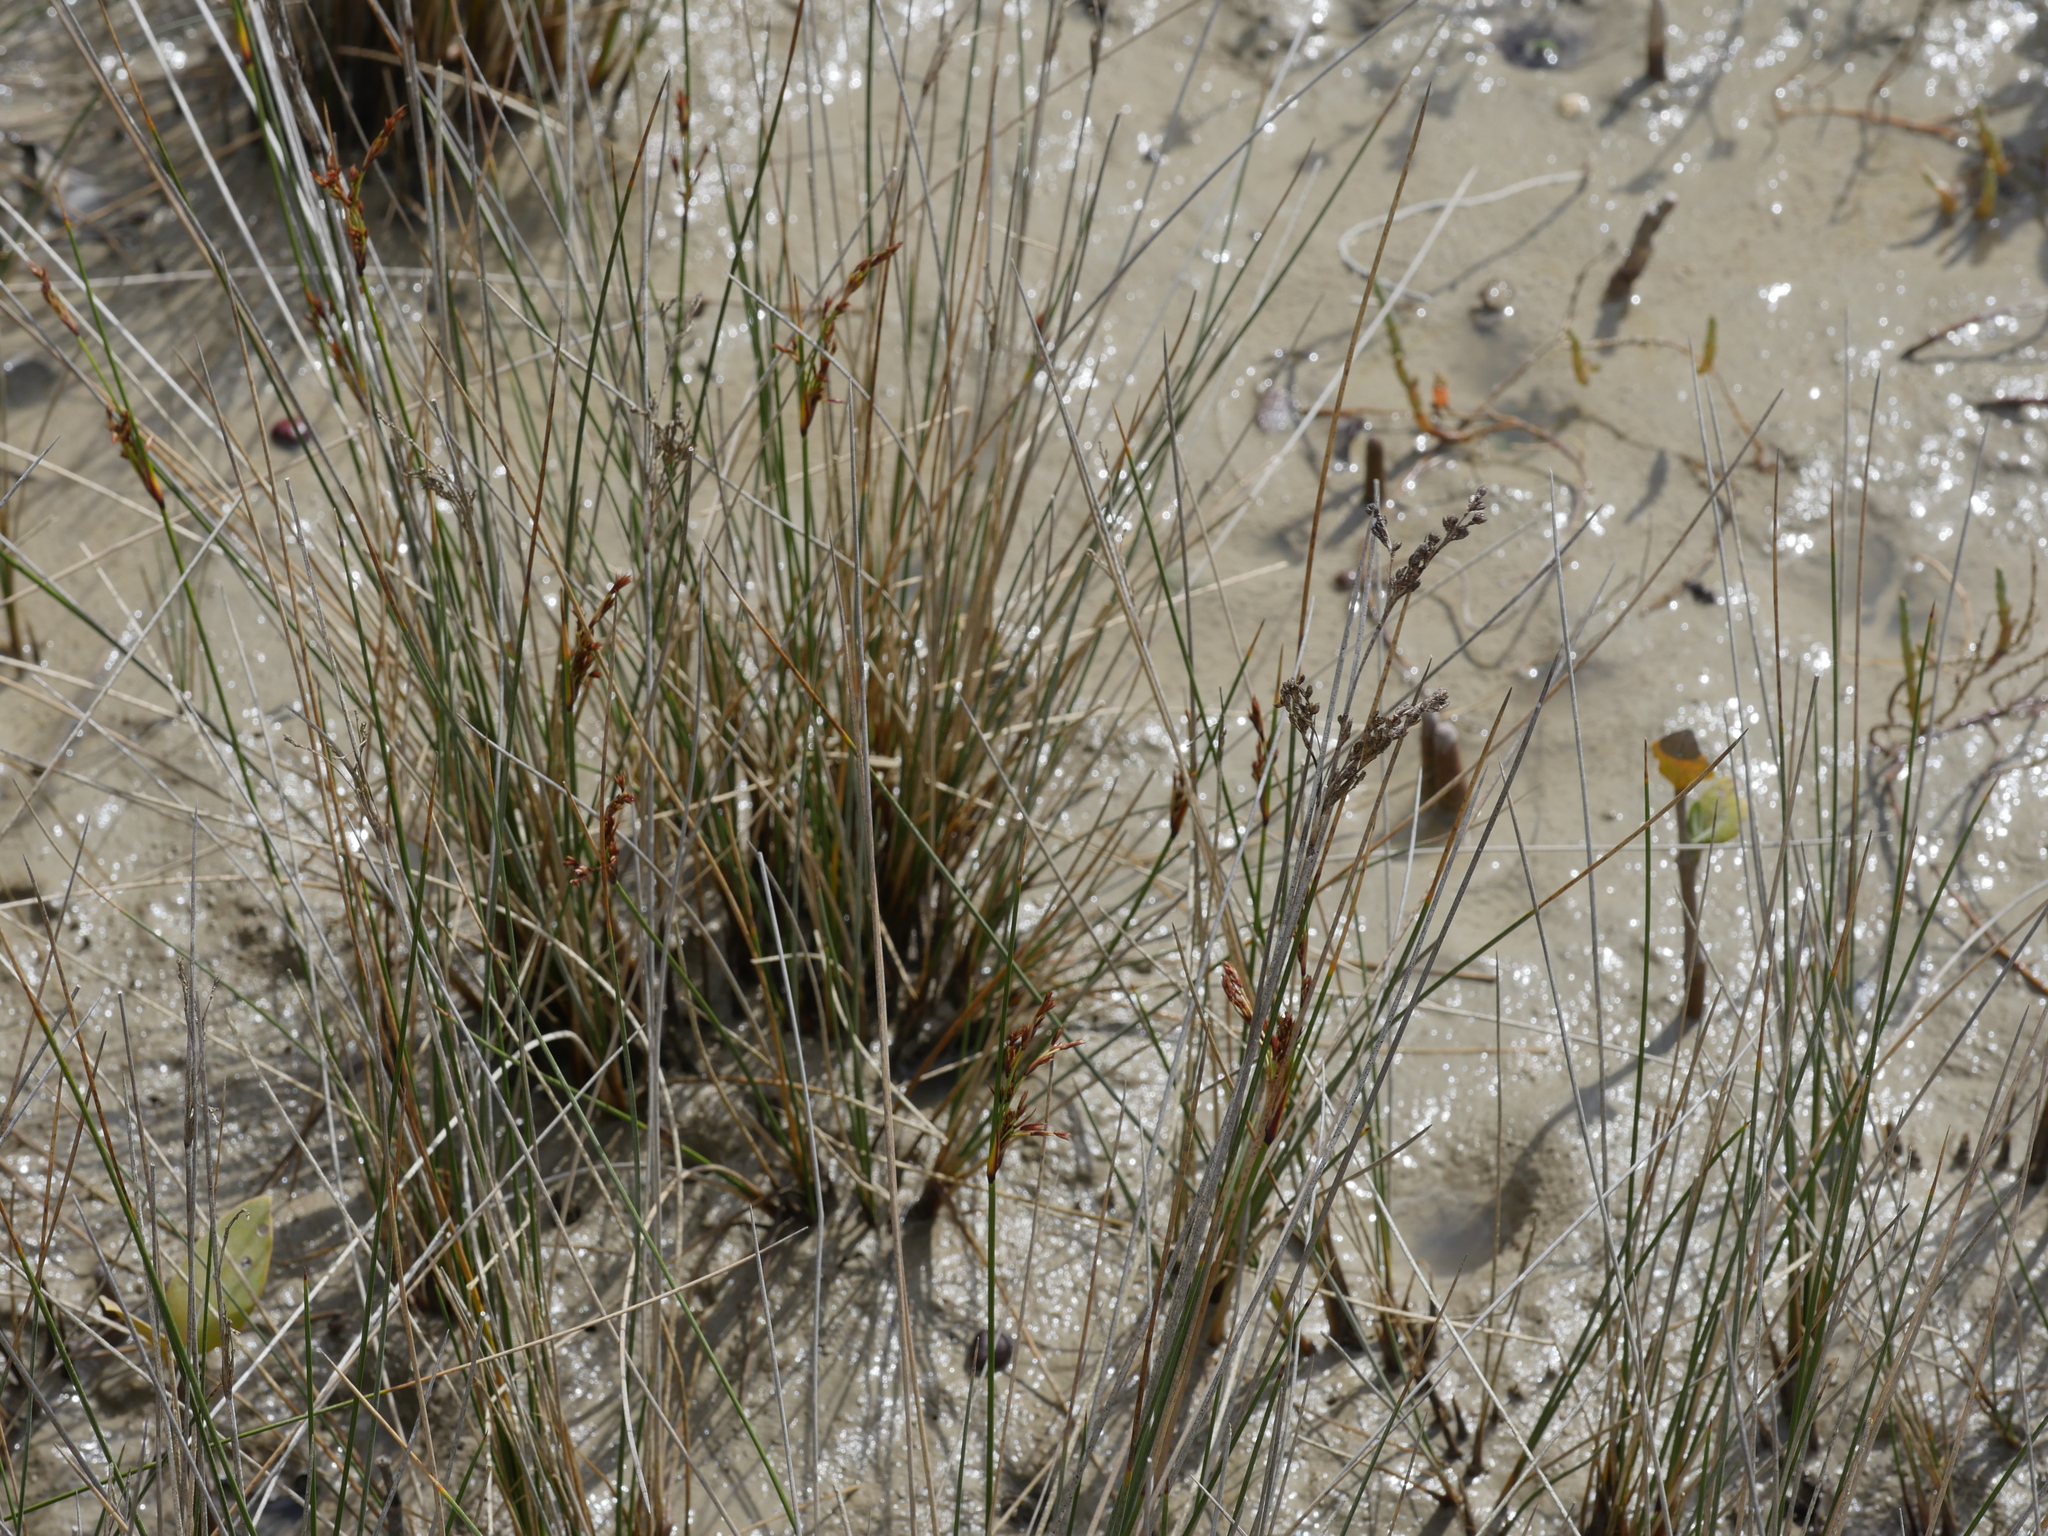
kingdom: Plantae
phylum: Tracheophyta
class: Liliopsida
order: Poales
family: Juncaceae
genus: Juncus
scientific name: Juncus kraussii
